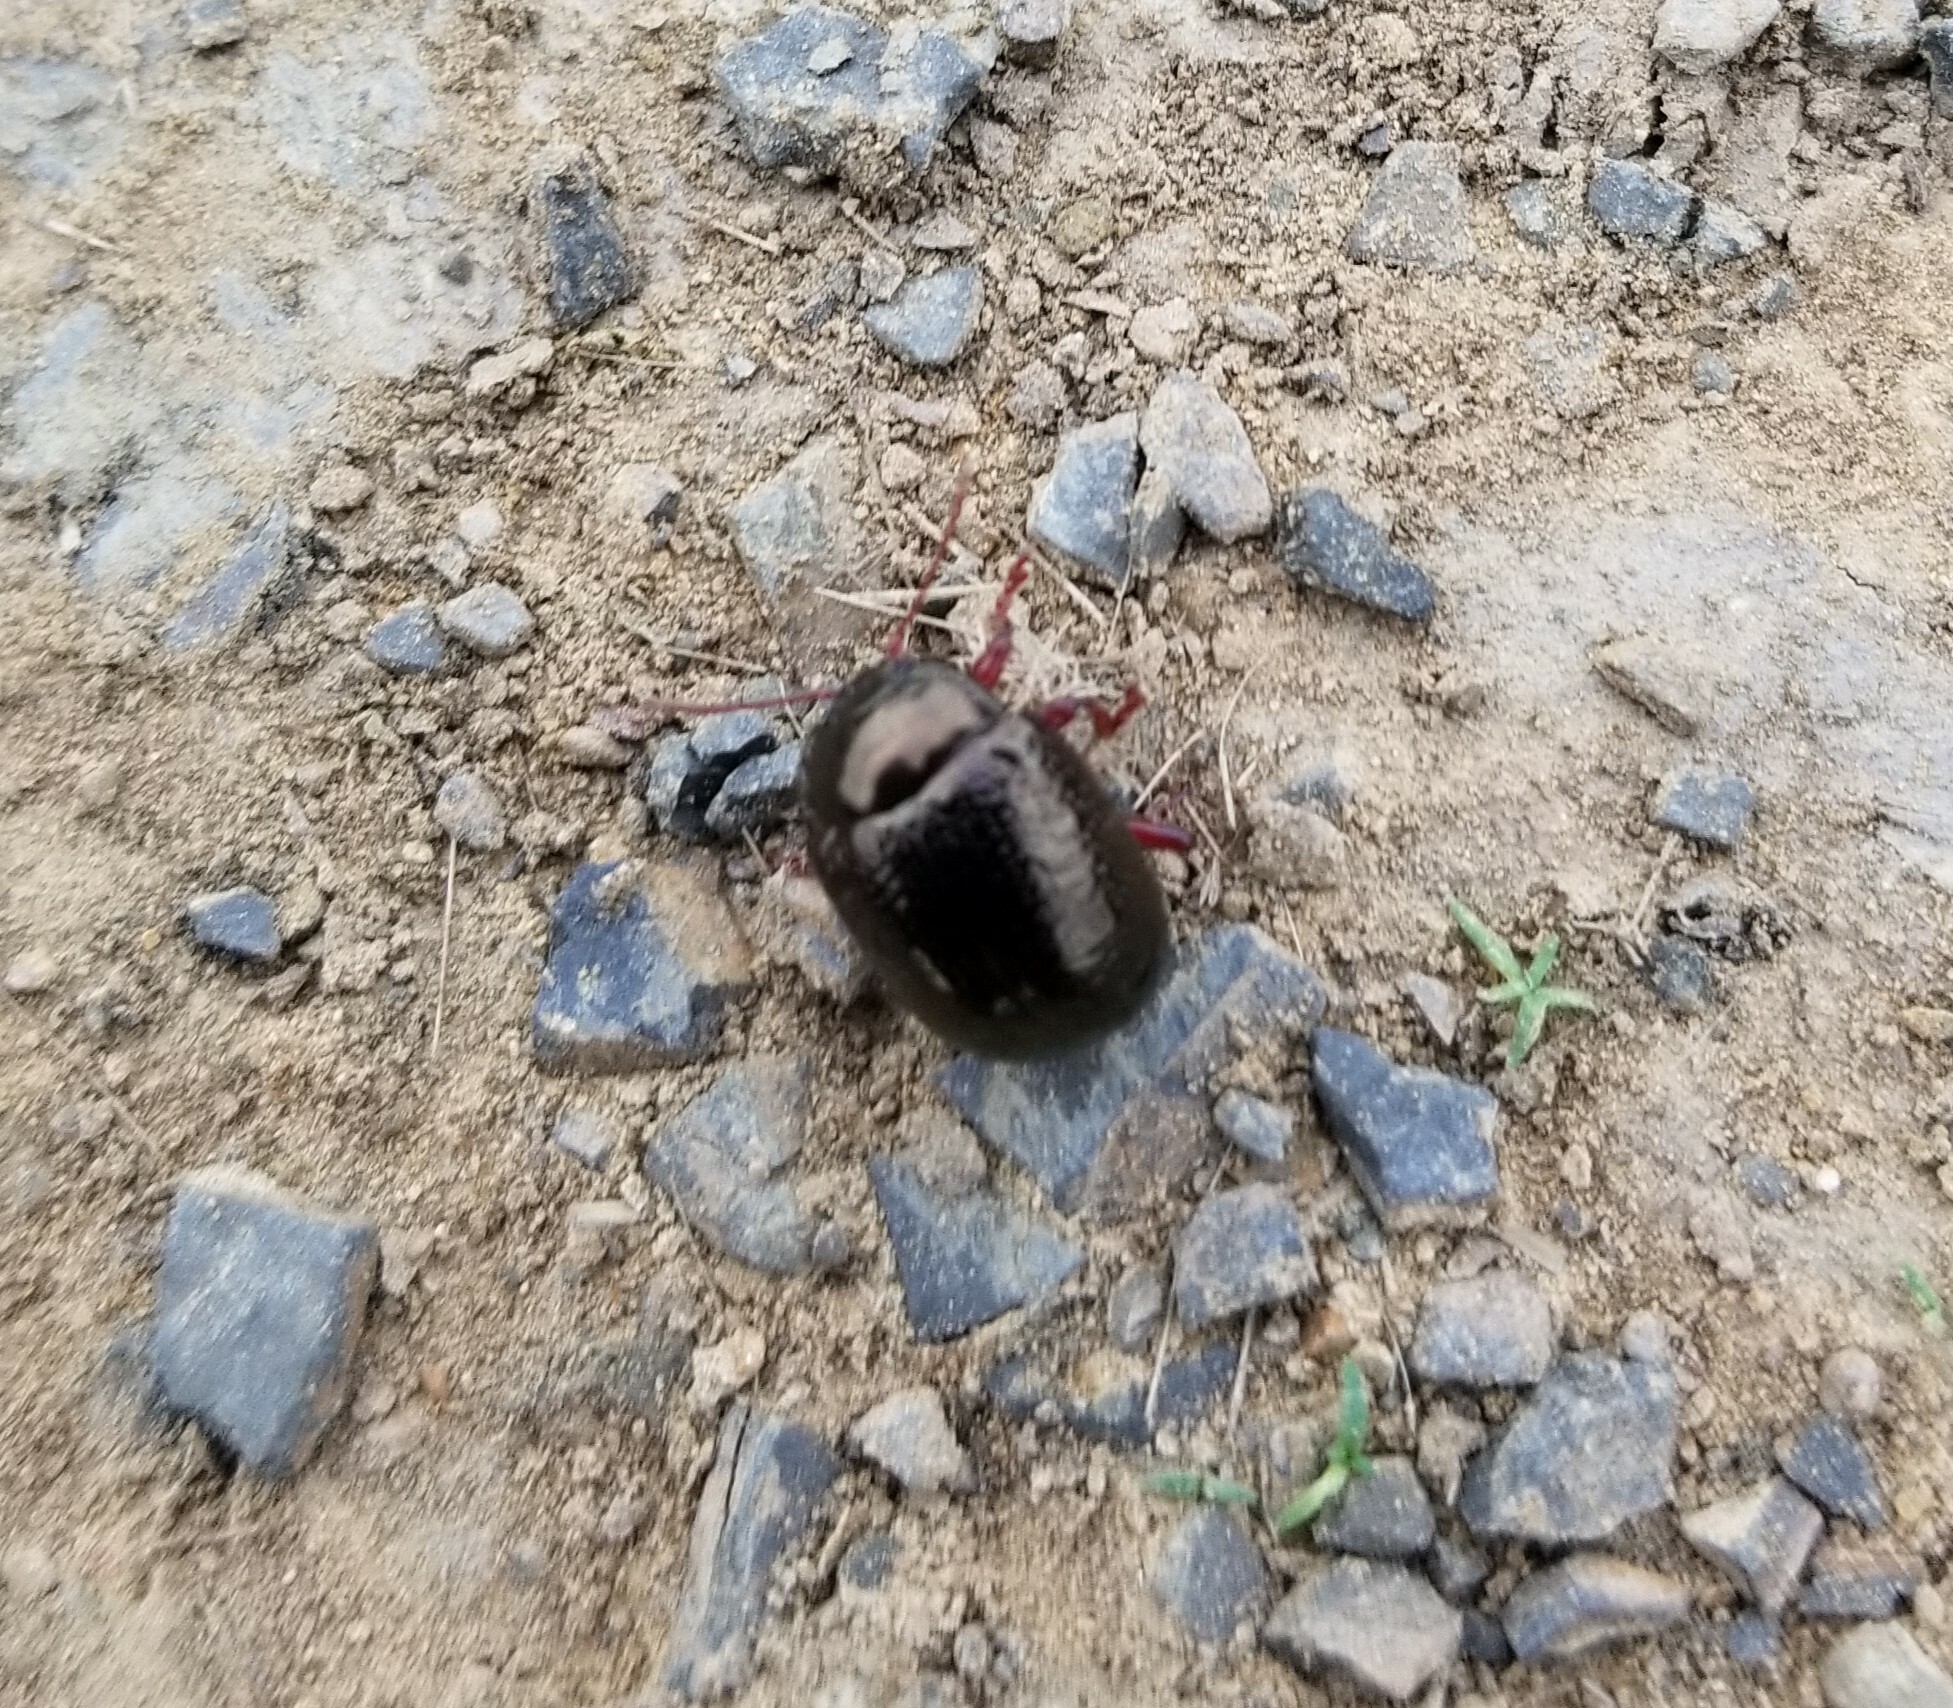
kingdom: Animalia
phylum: Arthropoda
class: Insecta
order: Coleoptera
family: Chrysomelidae
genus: Chrysolina
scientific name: Chrysolina bankii
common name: Leaf beetle
